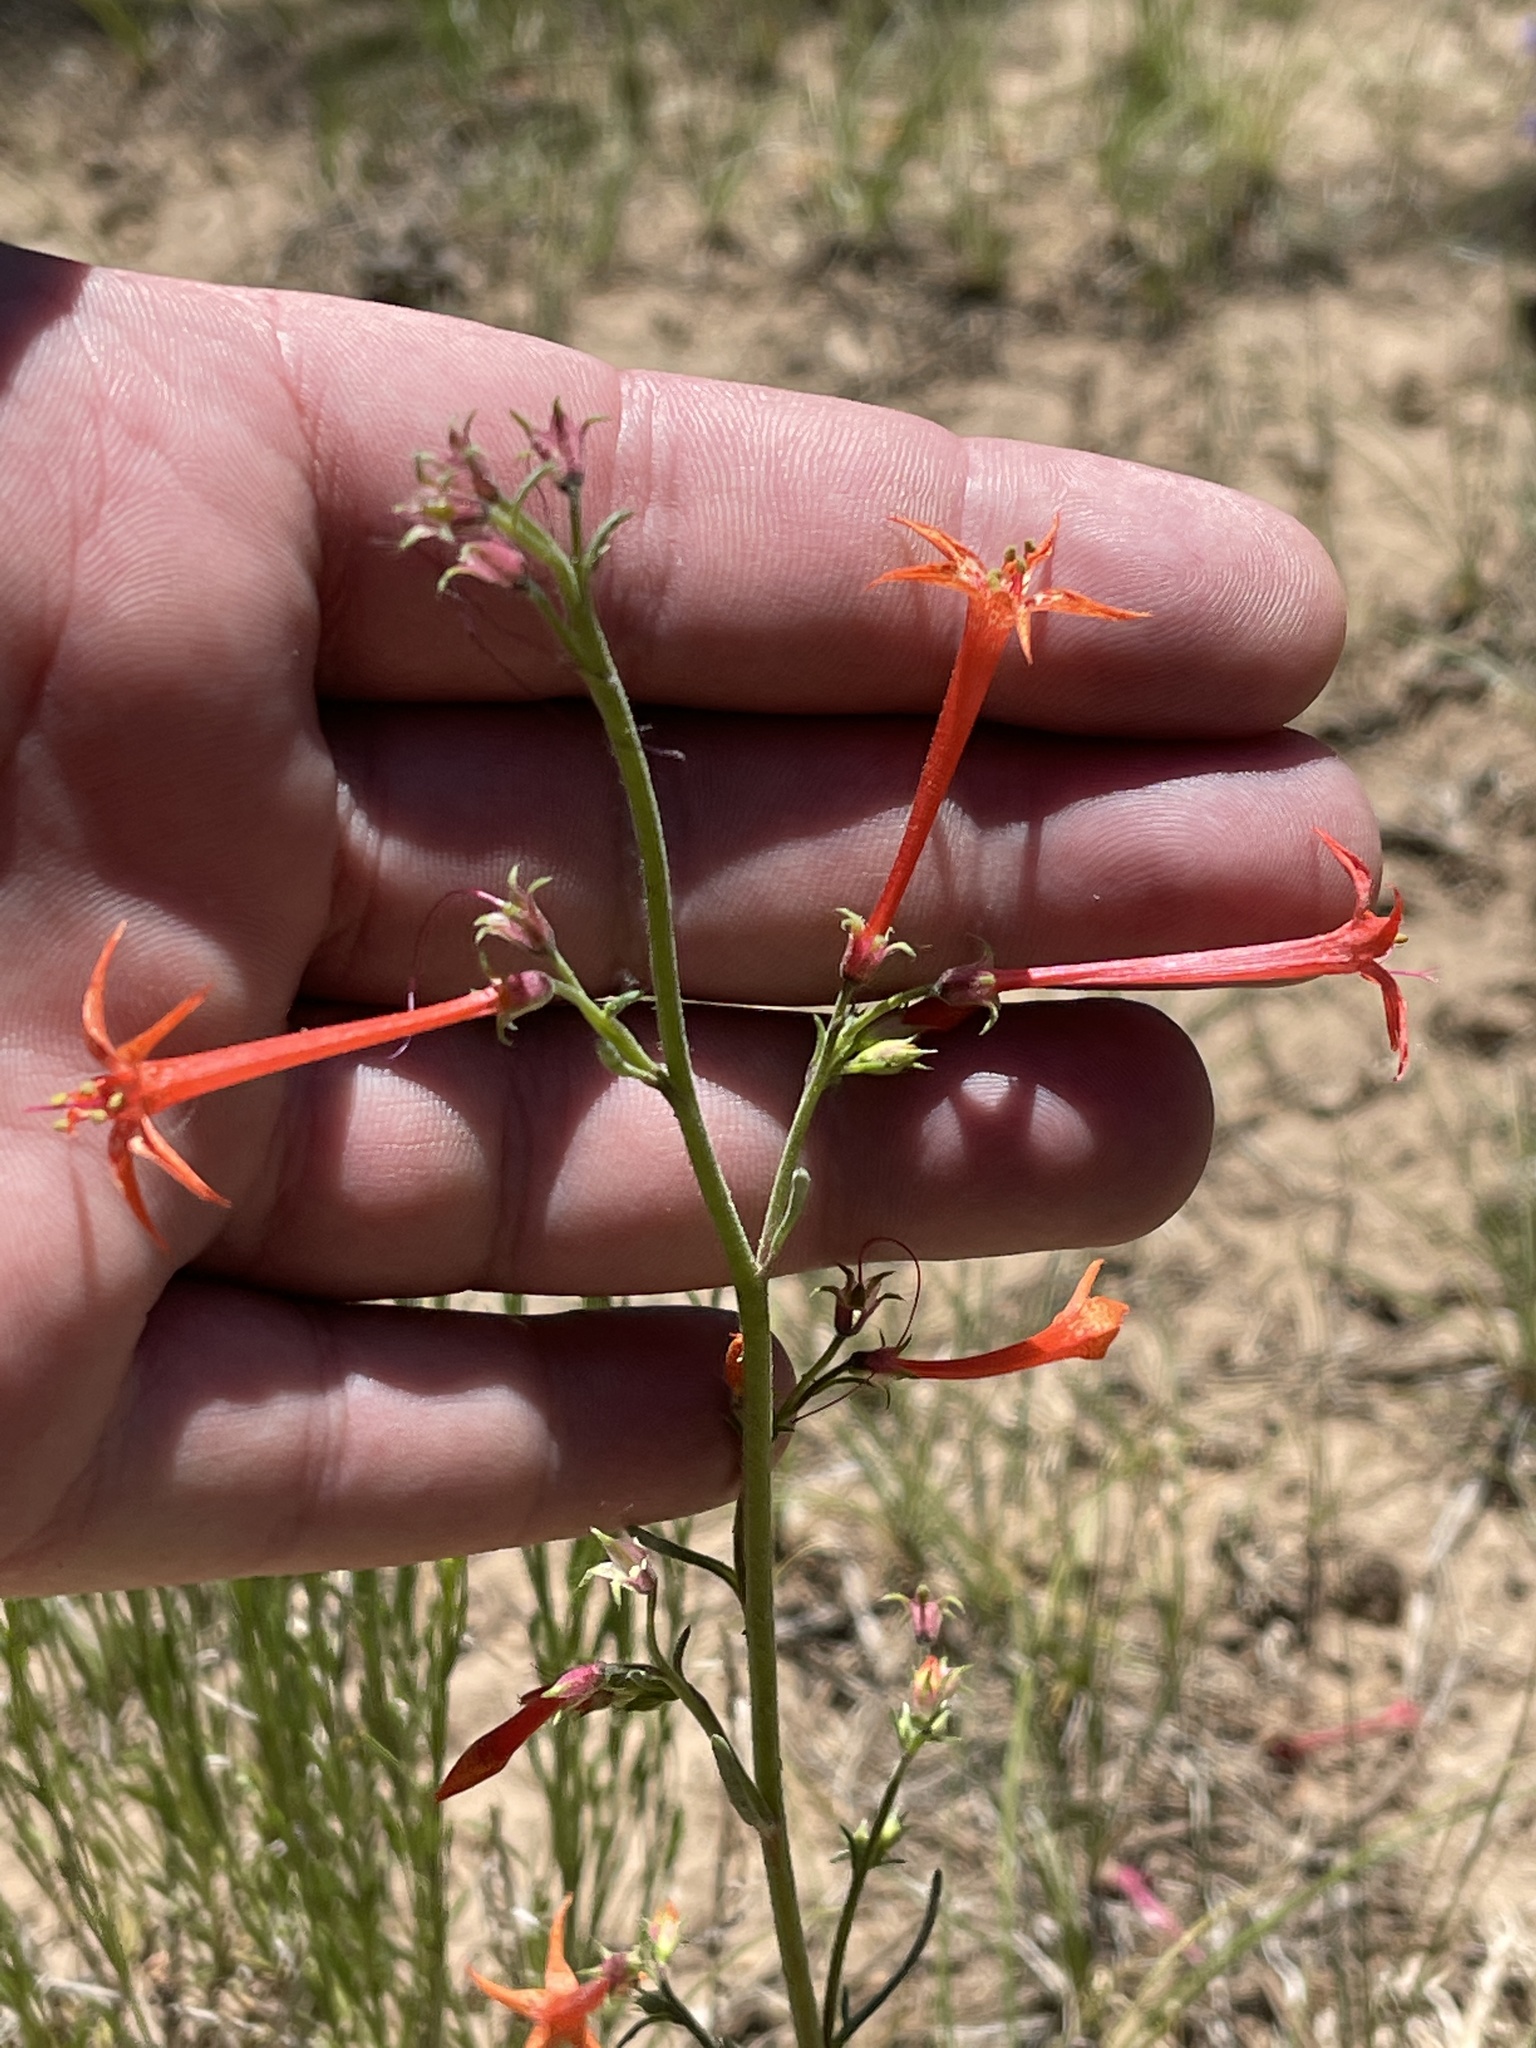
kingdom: Plantae
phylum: Tracheophyta
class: Magnoliopsida
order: Ericales
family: Polemoniaceae
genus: Ipomopsis
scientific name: Ipomopsis aggregata
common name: Scarlet gilia
